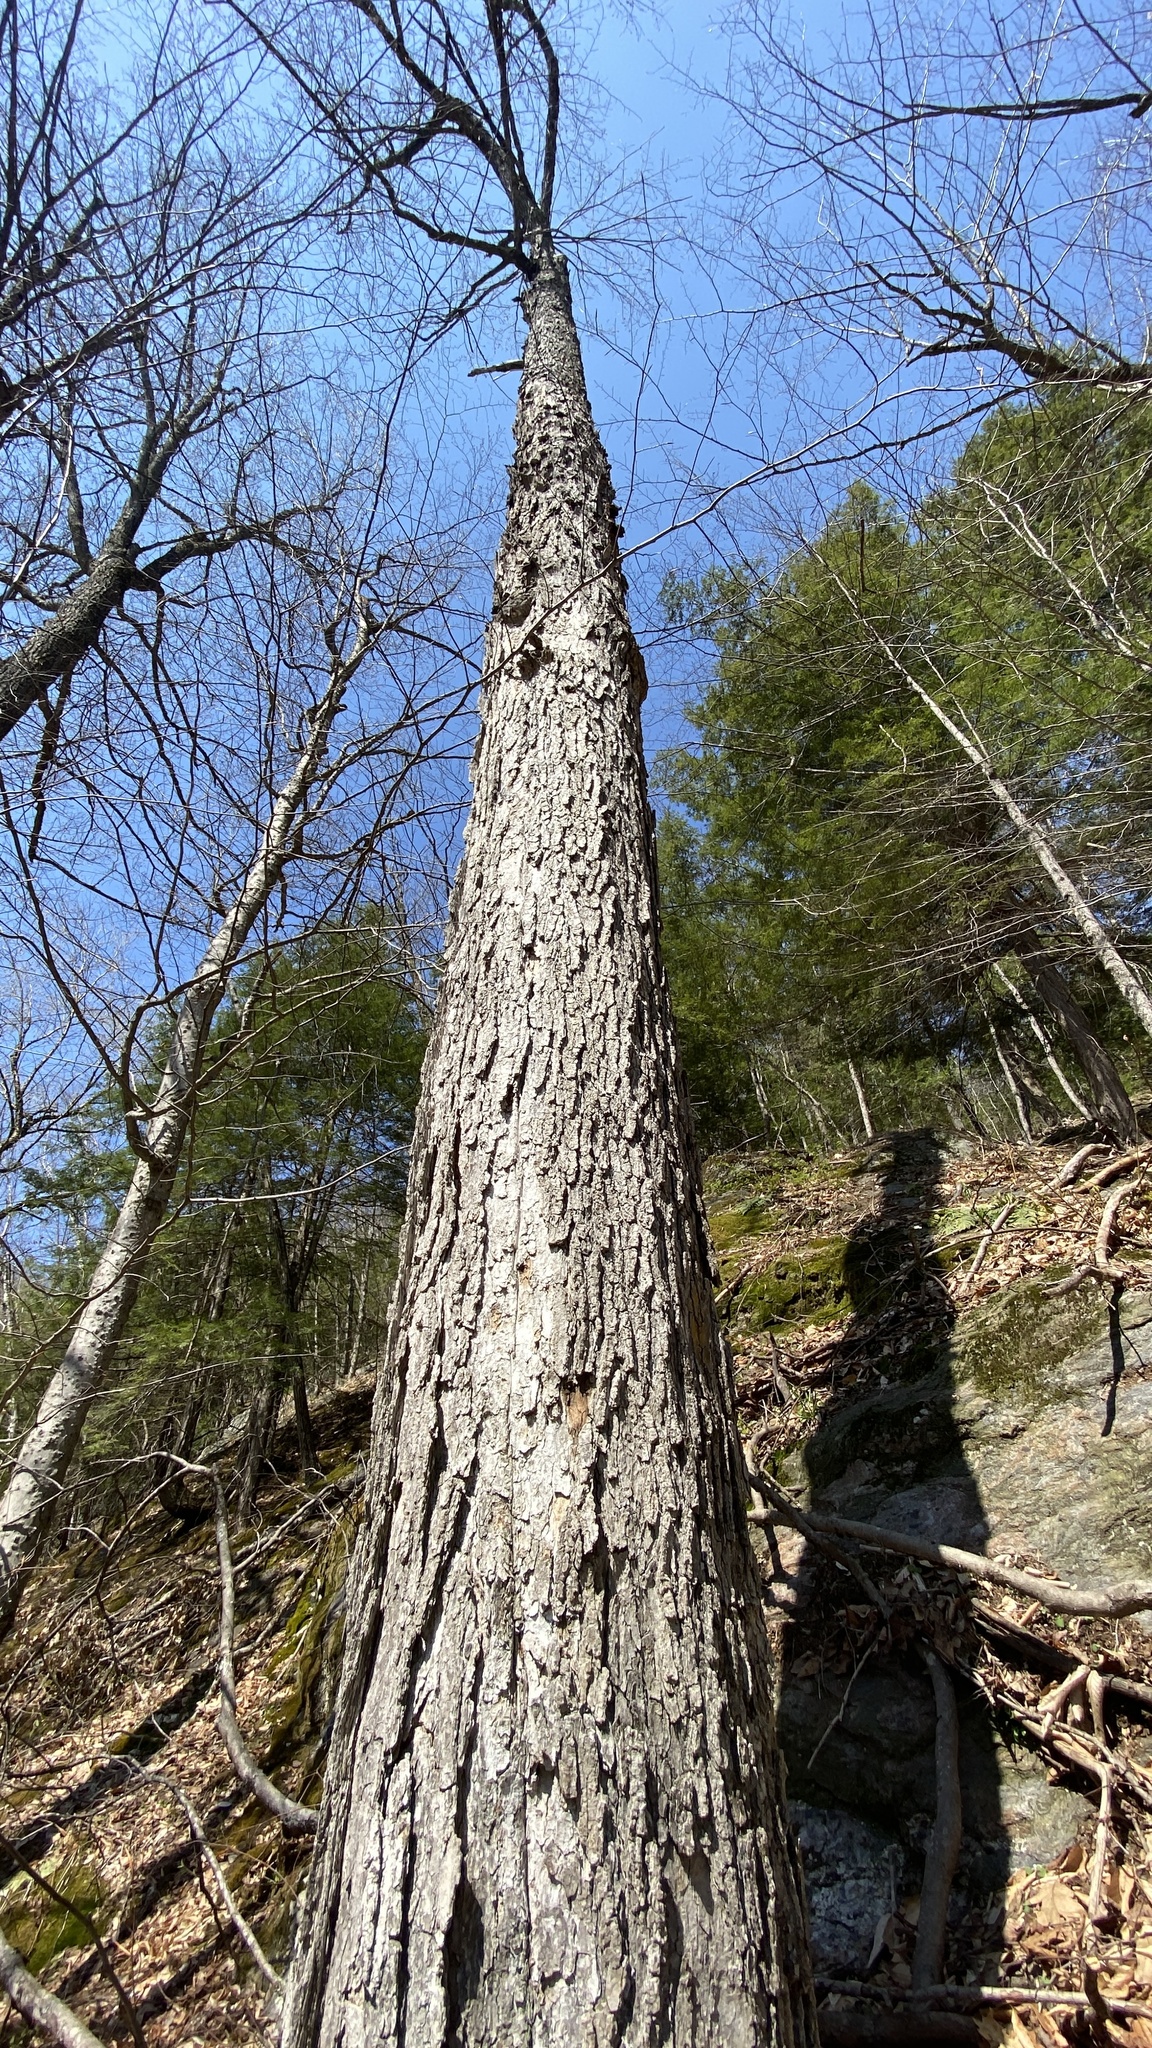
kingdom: Plantae
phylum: Tracheophyta
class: Magnoliopsida
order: Sapindales
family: Sapindaceae
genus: Acer
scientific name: Acer saccharum
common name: Sugar maple
